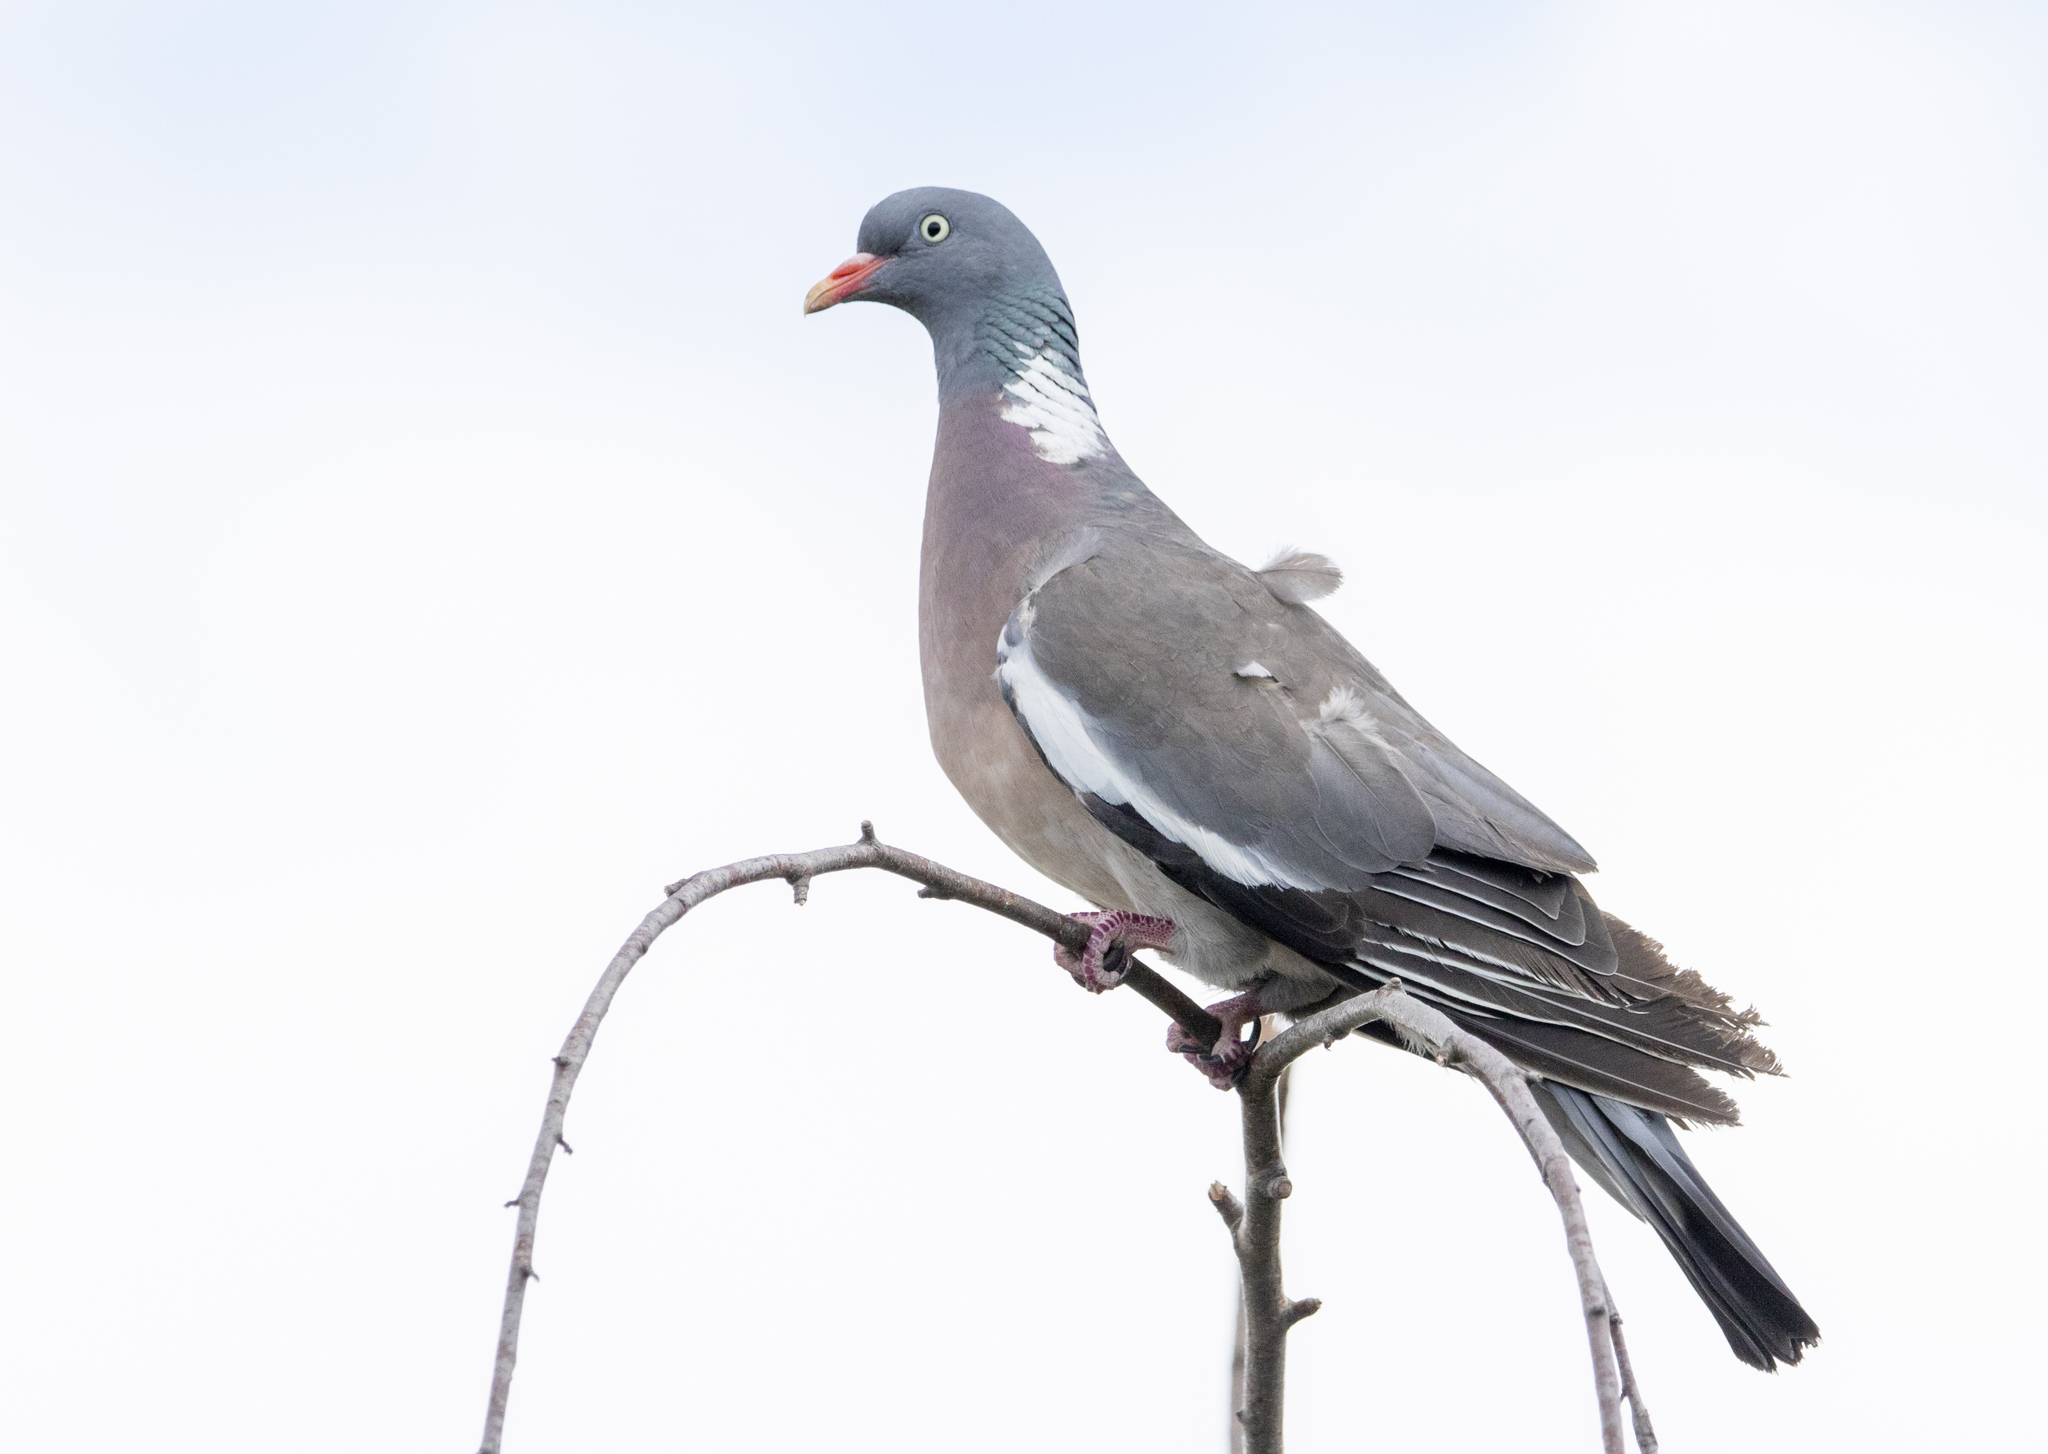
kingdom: Animalia
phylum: Chordata
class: Aves
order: Columbiformes
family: Columbidae
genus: Columba
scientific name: Columba palumbus
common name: Common wood pigeon
